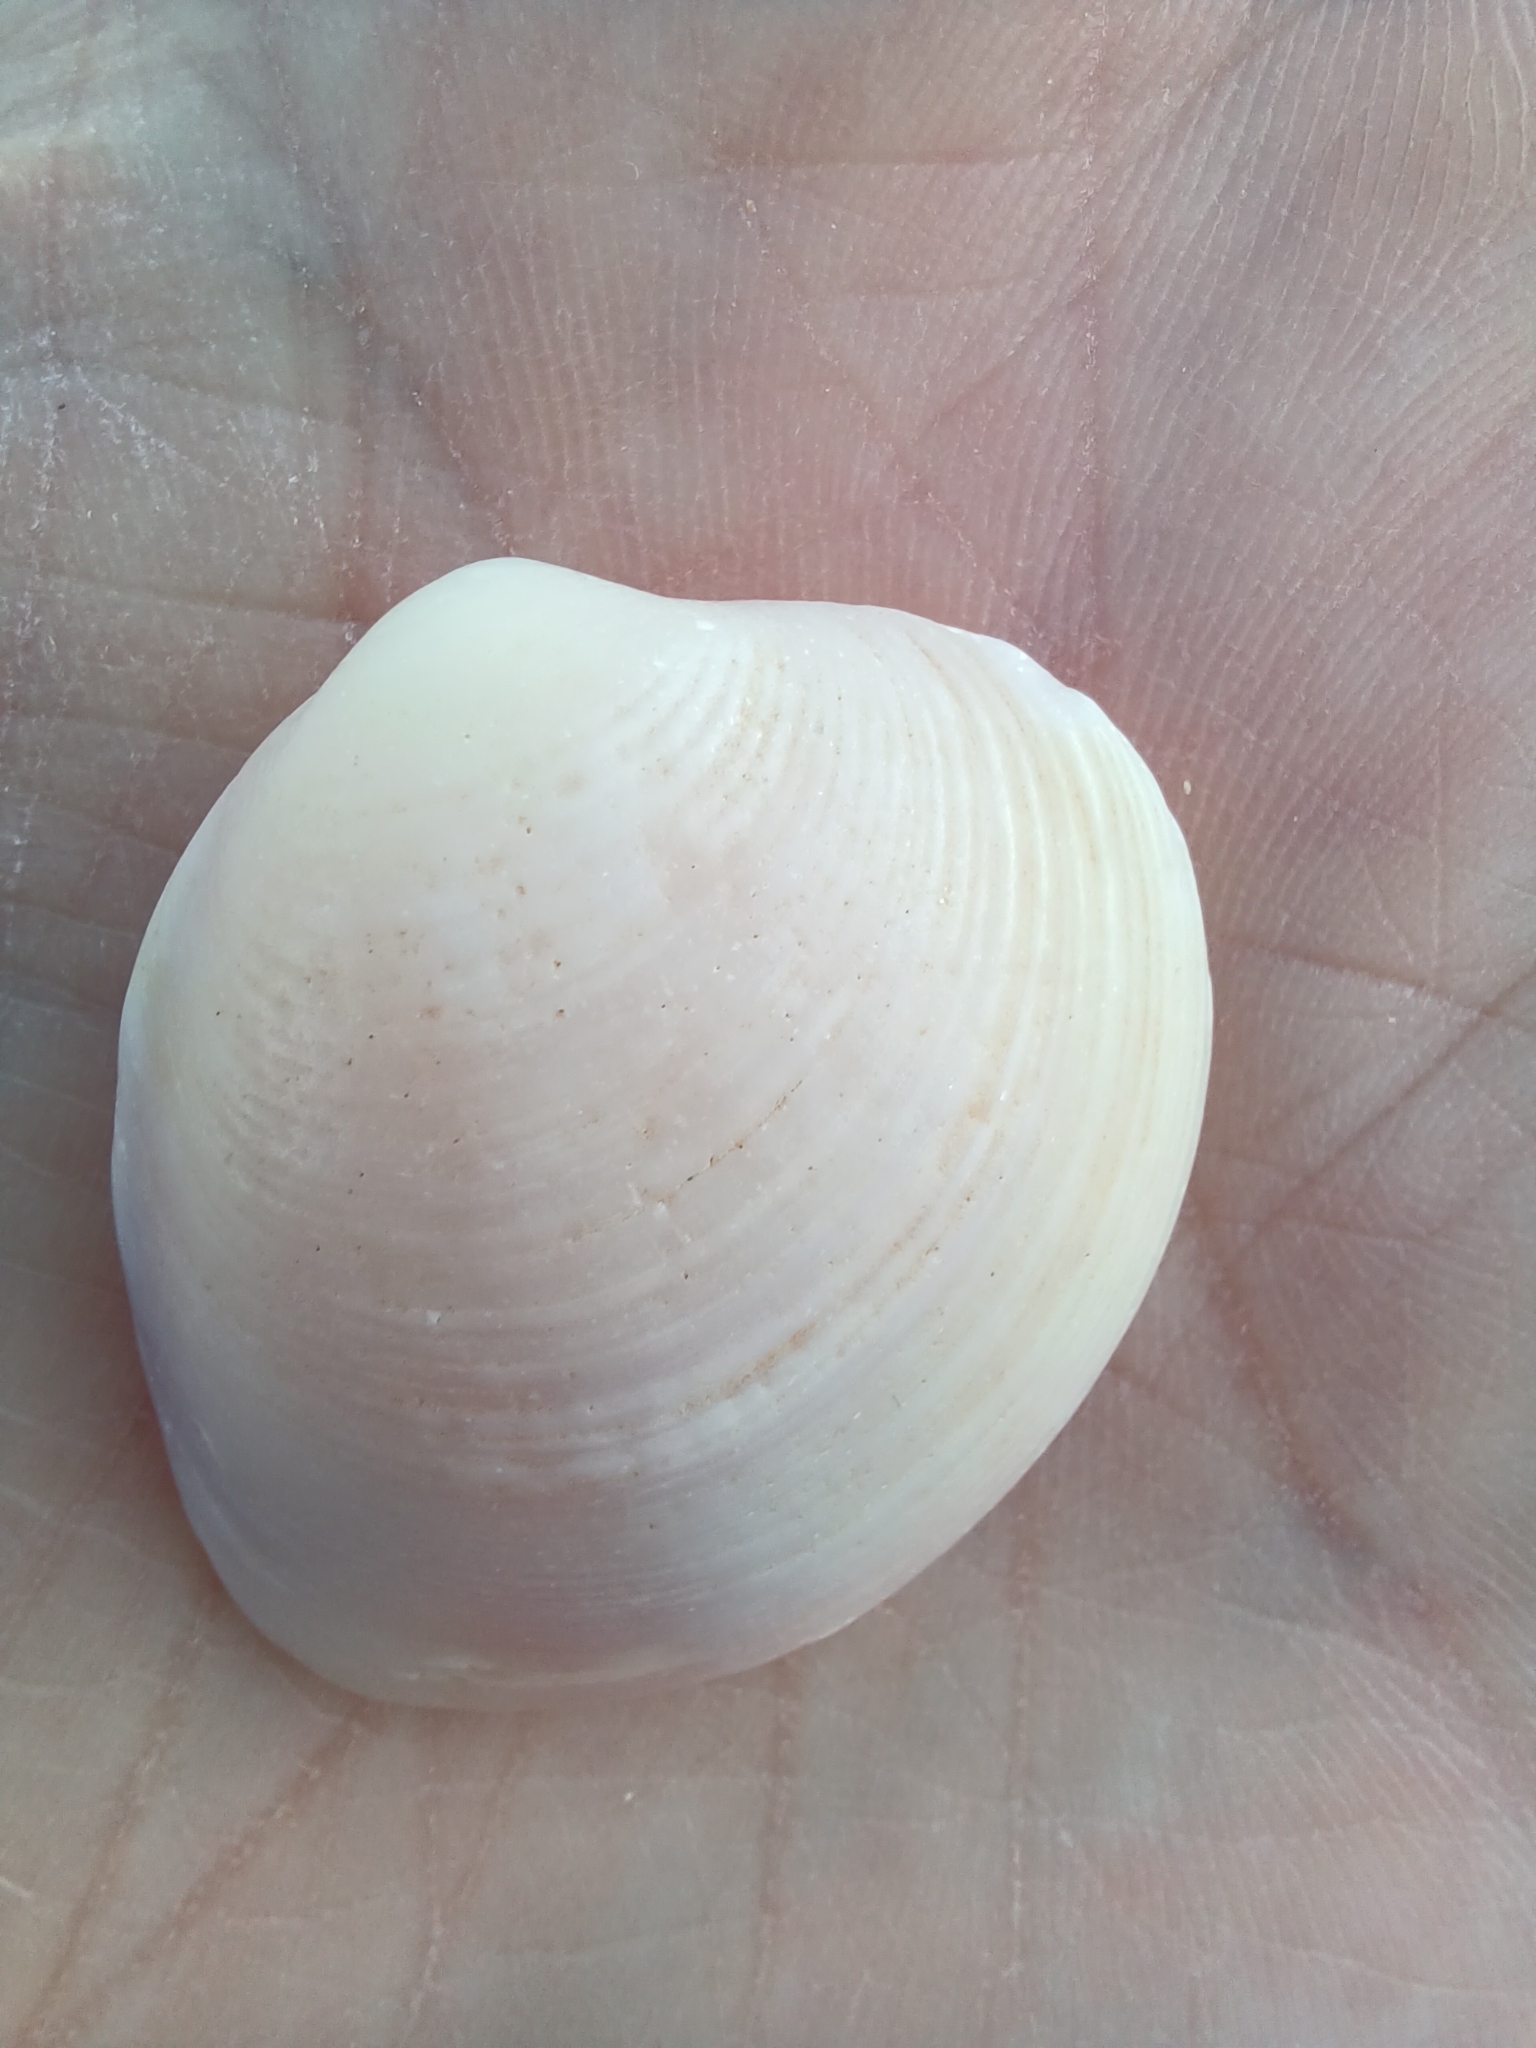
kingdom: Animalia
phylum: Mollusca
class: Bivalvia
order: Venerida
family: Veneridae
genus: Katelysia
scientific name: Katelysia peronii
